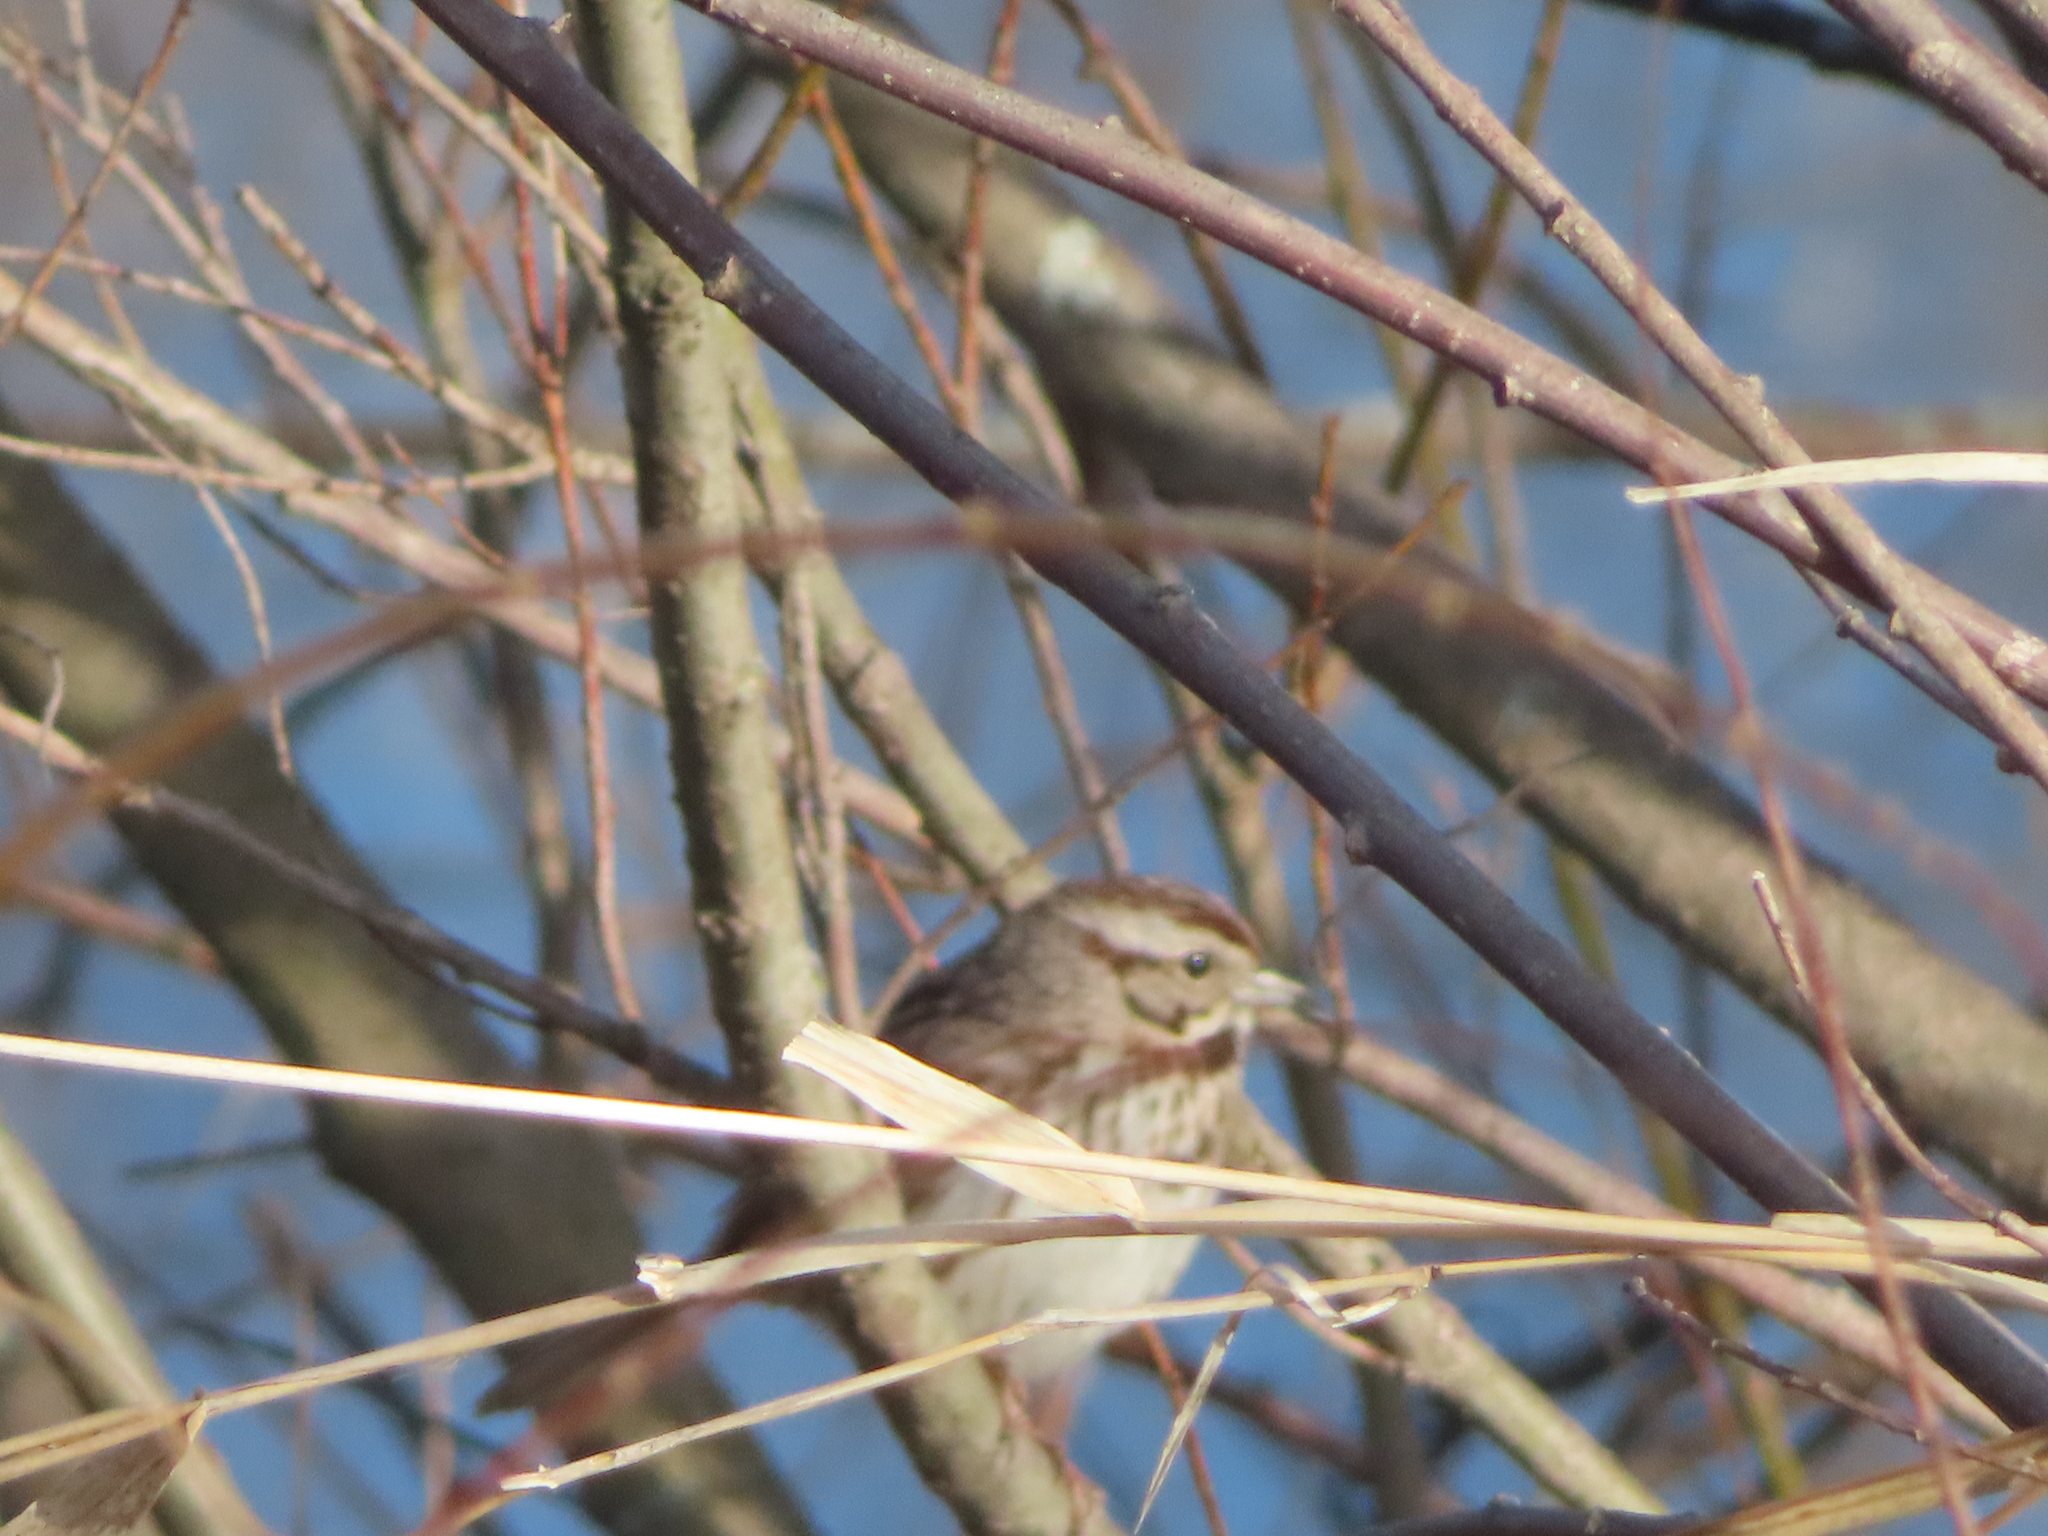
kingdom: Animalia
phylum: Chordata
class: Aves
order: Passeriformes
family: Passerellidae
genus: Melospiza
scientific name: Melospiza melodia
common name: Song sparrow
